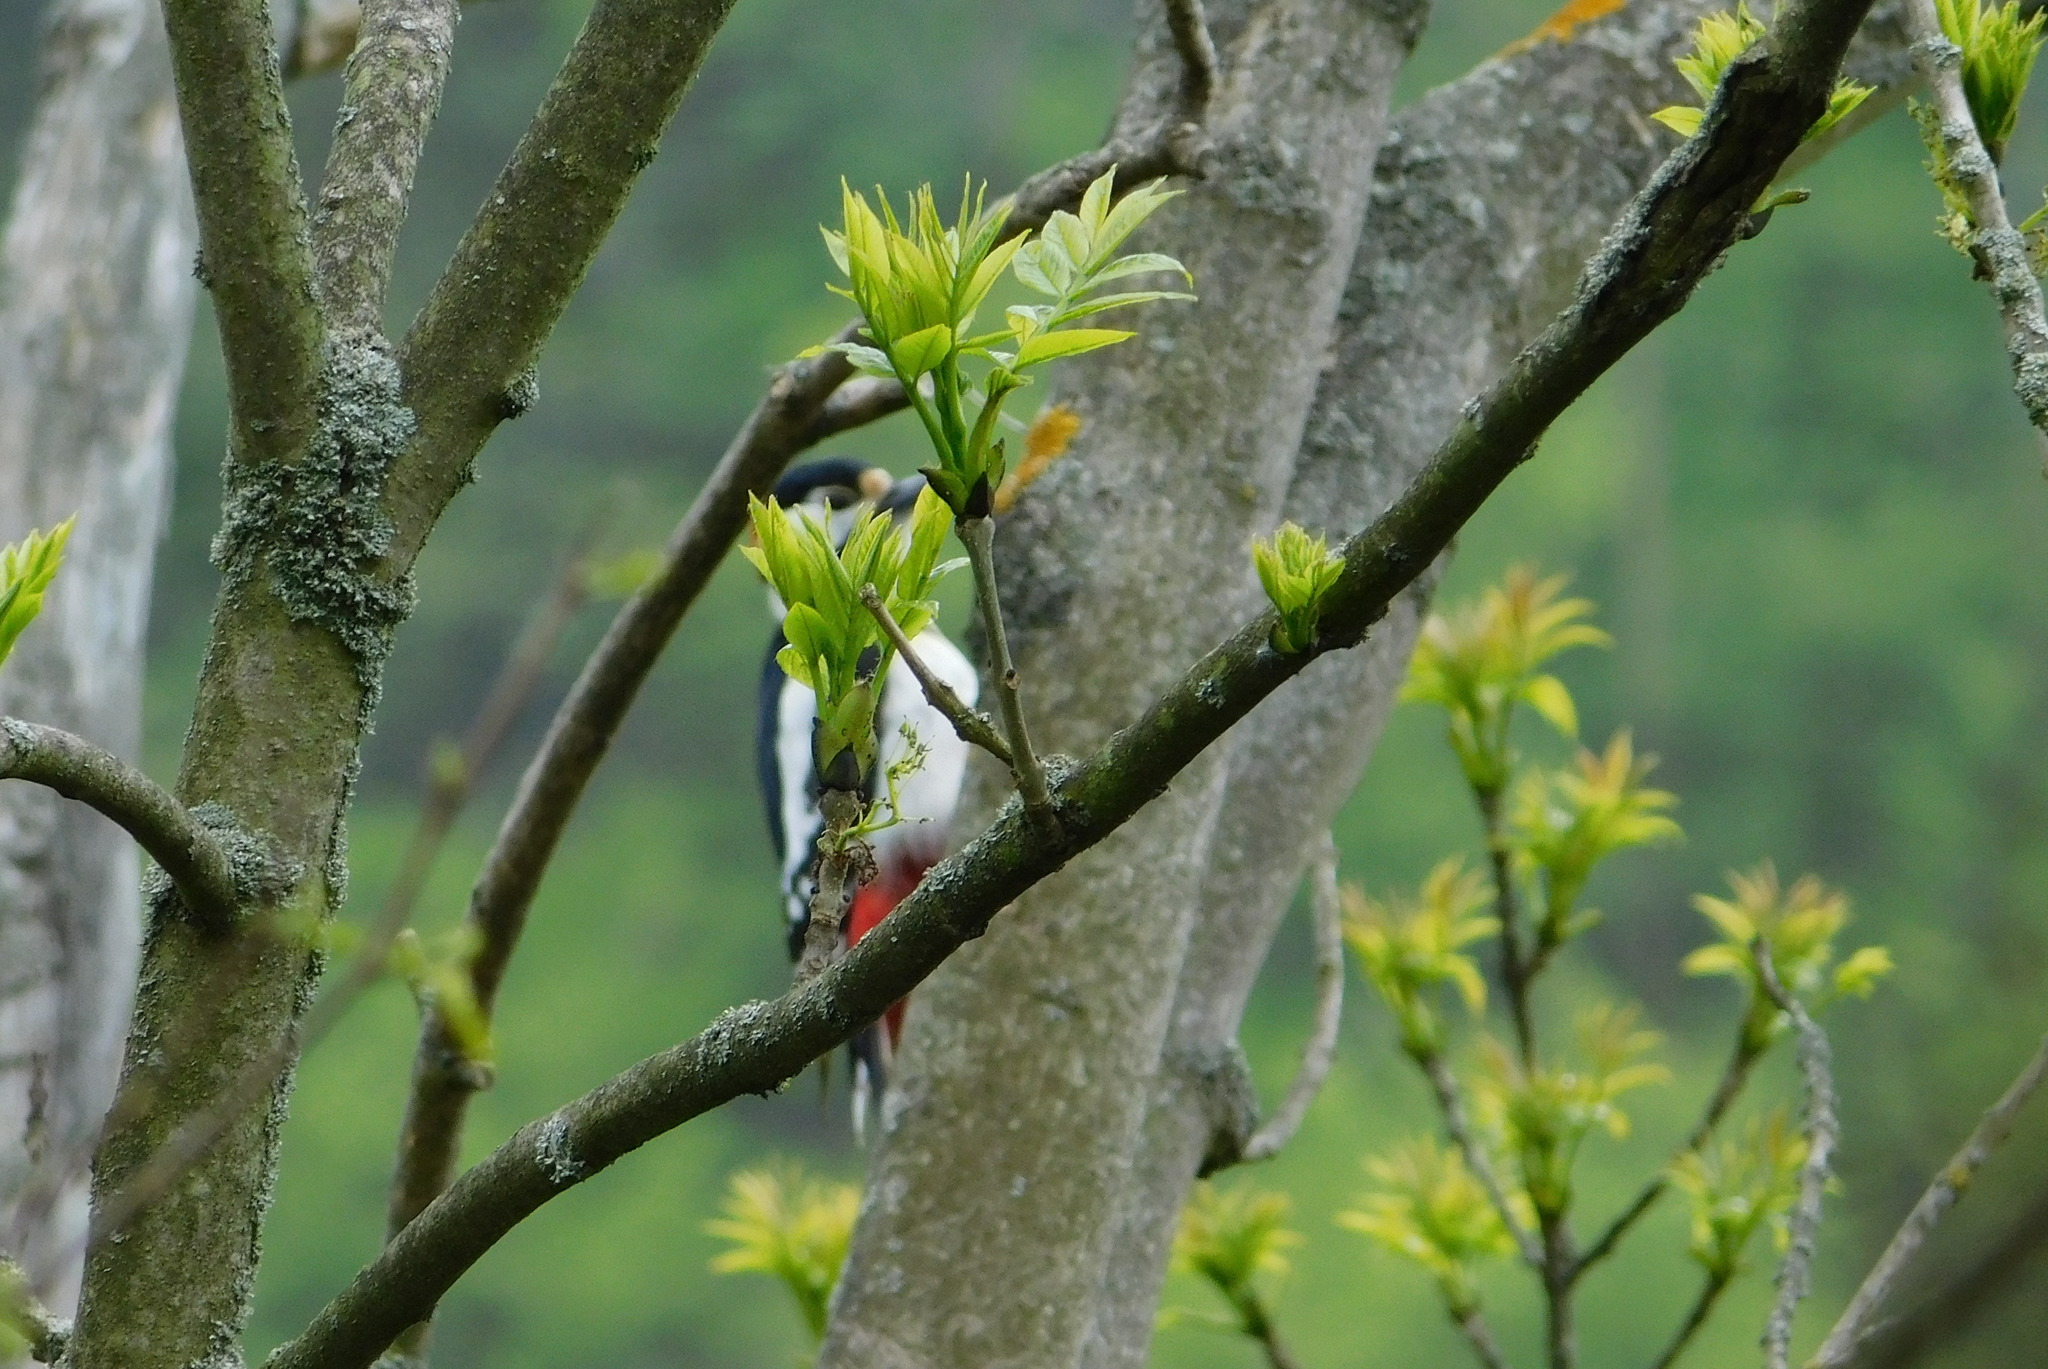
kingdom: Animalia
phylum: Chordata
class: Aves
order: Piciformes
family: Picidae
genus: Dendrocopos
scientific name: Dendrocopos major
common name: Great spotted woodpecker
